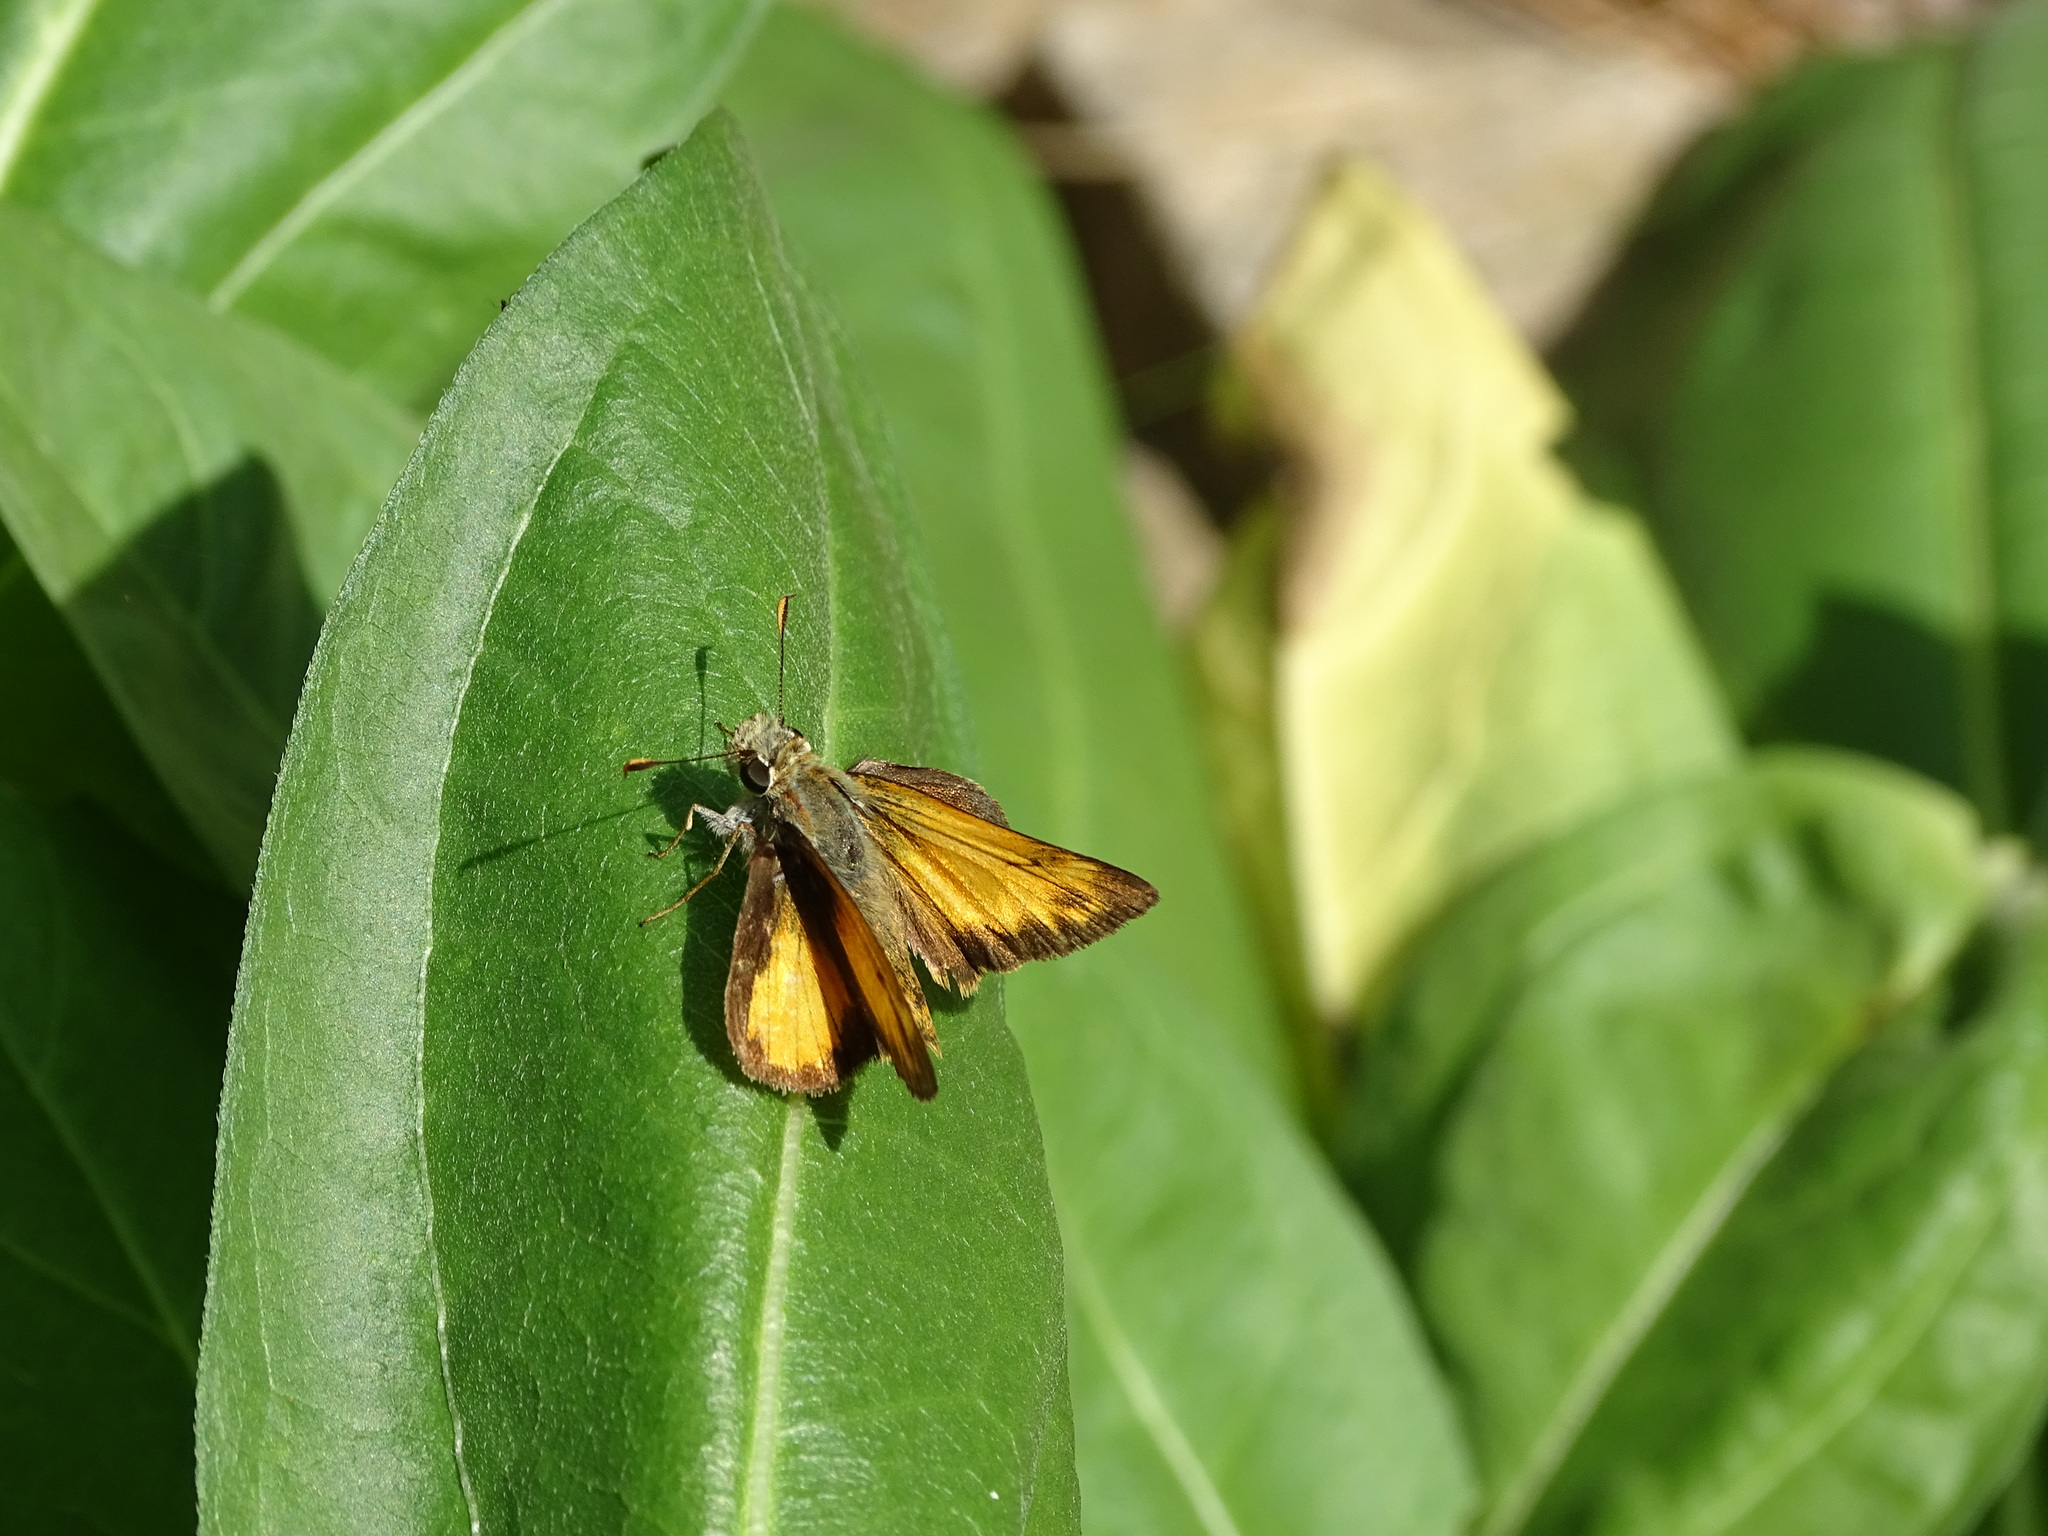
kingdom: Animalia
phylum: Arthropoda
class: Insecta
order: Lepidoptera
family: Hesperiidae
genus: Lon
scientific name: Lon taxiles
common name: Taxiles skipper
